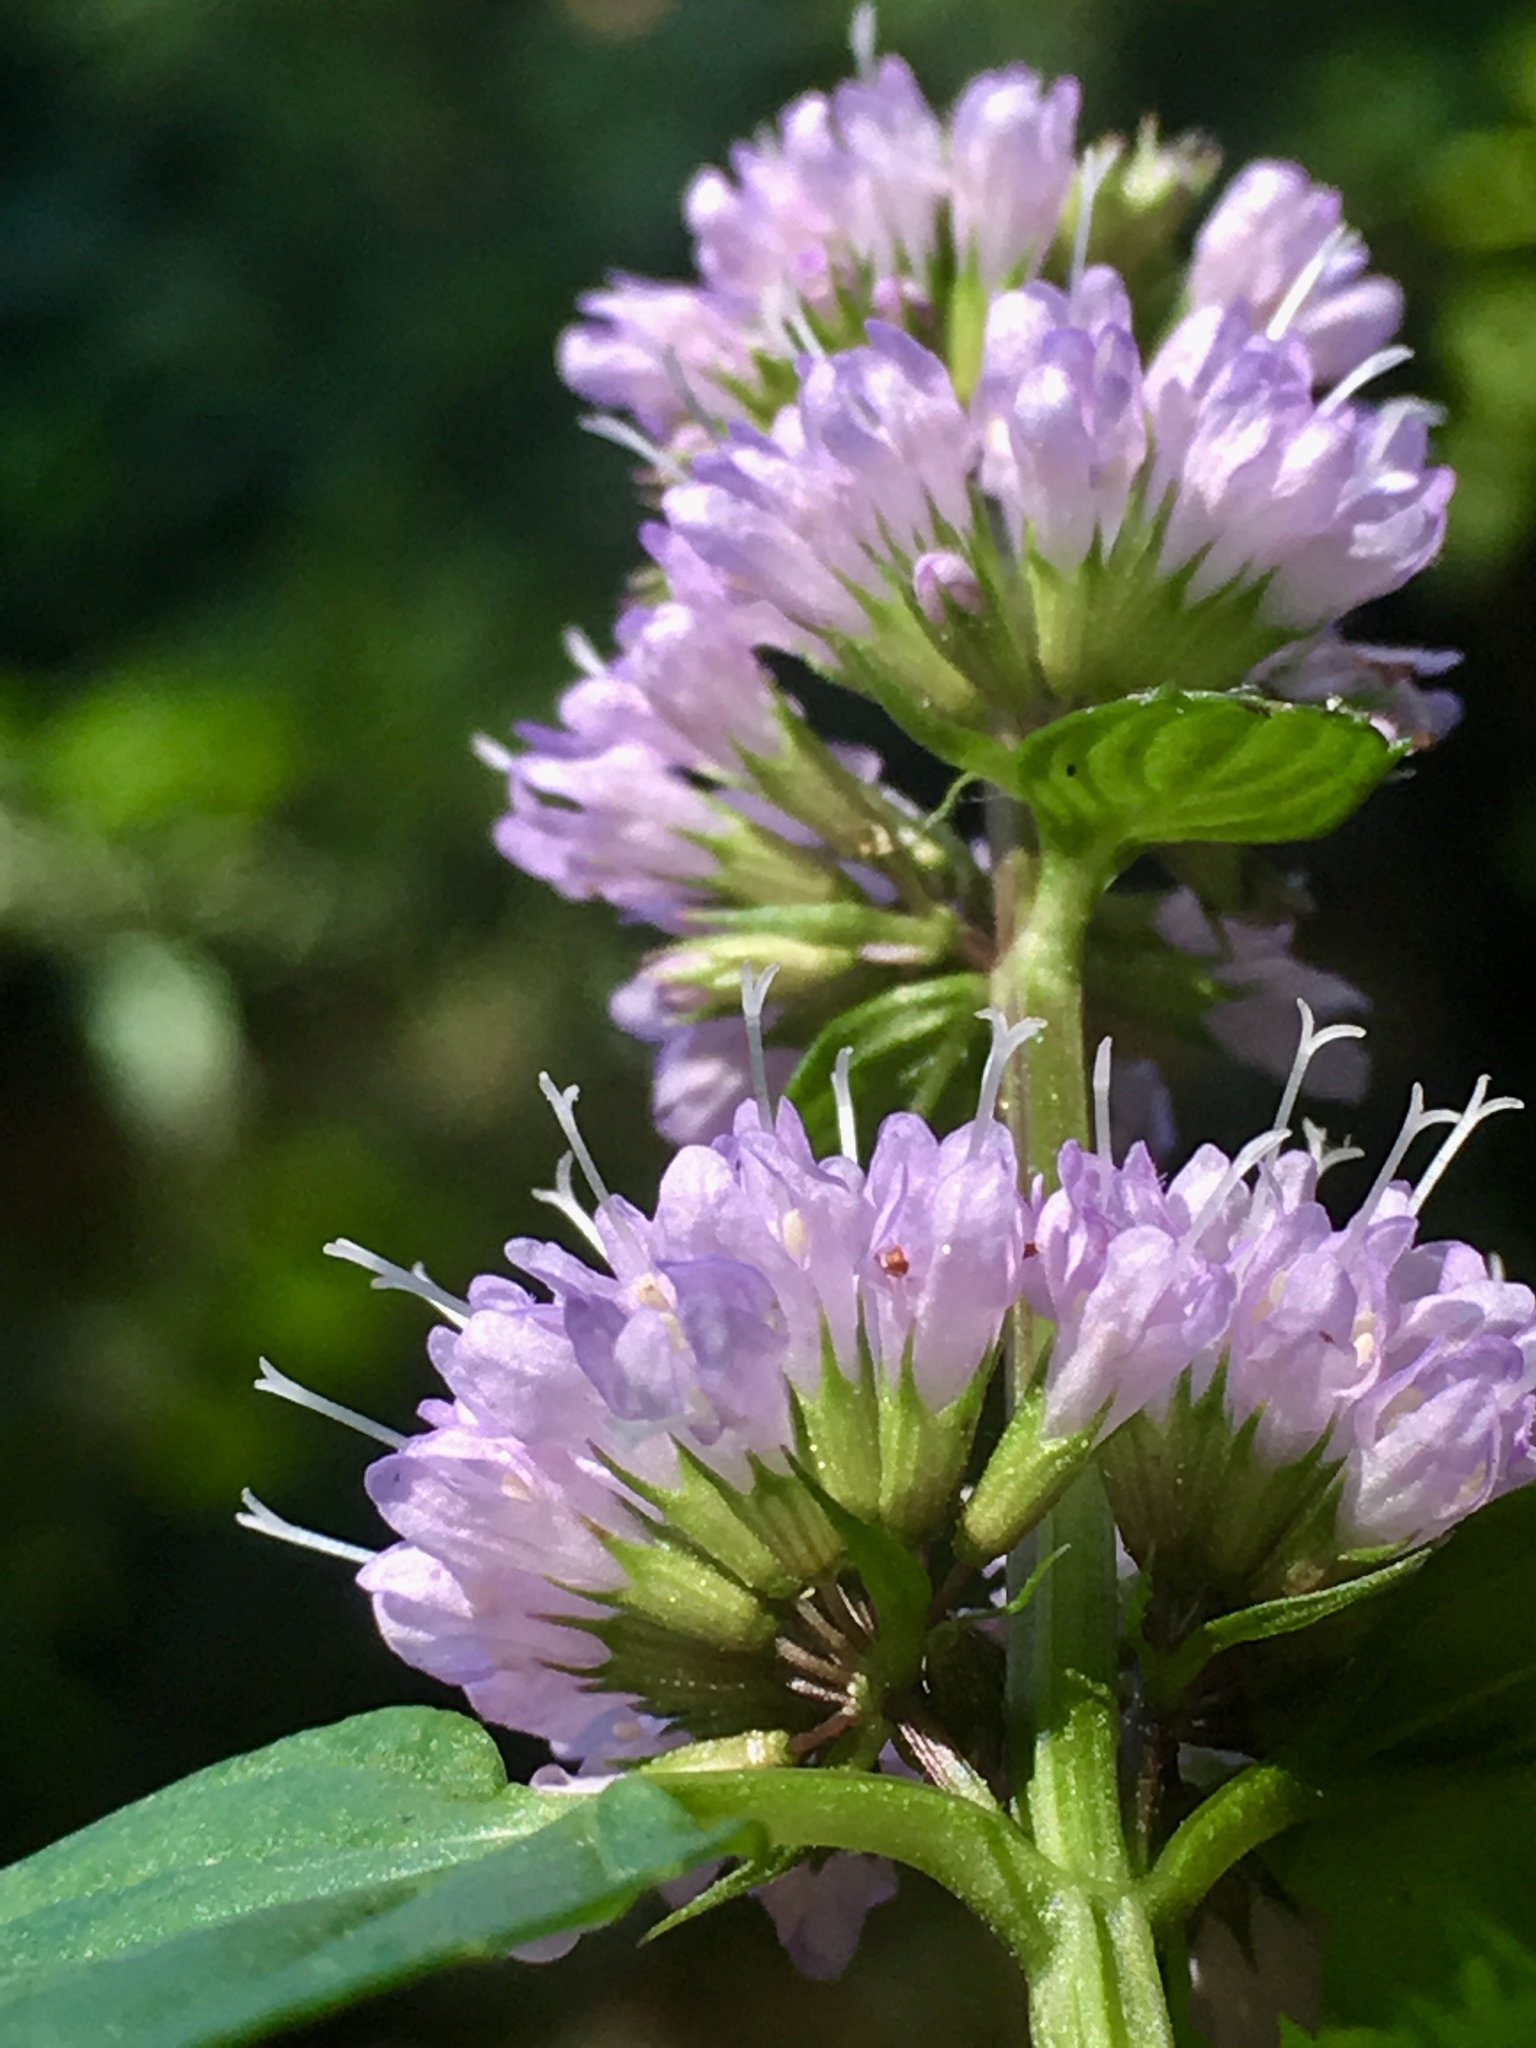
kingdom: Plantae
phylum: Tracheophyta
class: Magnoliopsida
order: Lamiales
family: Lamiaceae
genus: Mentha
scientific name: Mentha aquatica
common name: Water mint
